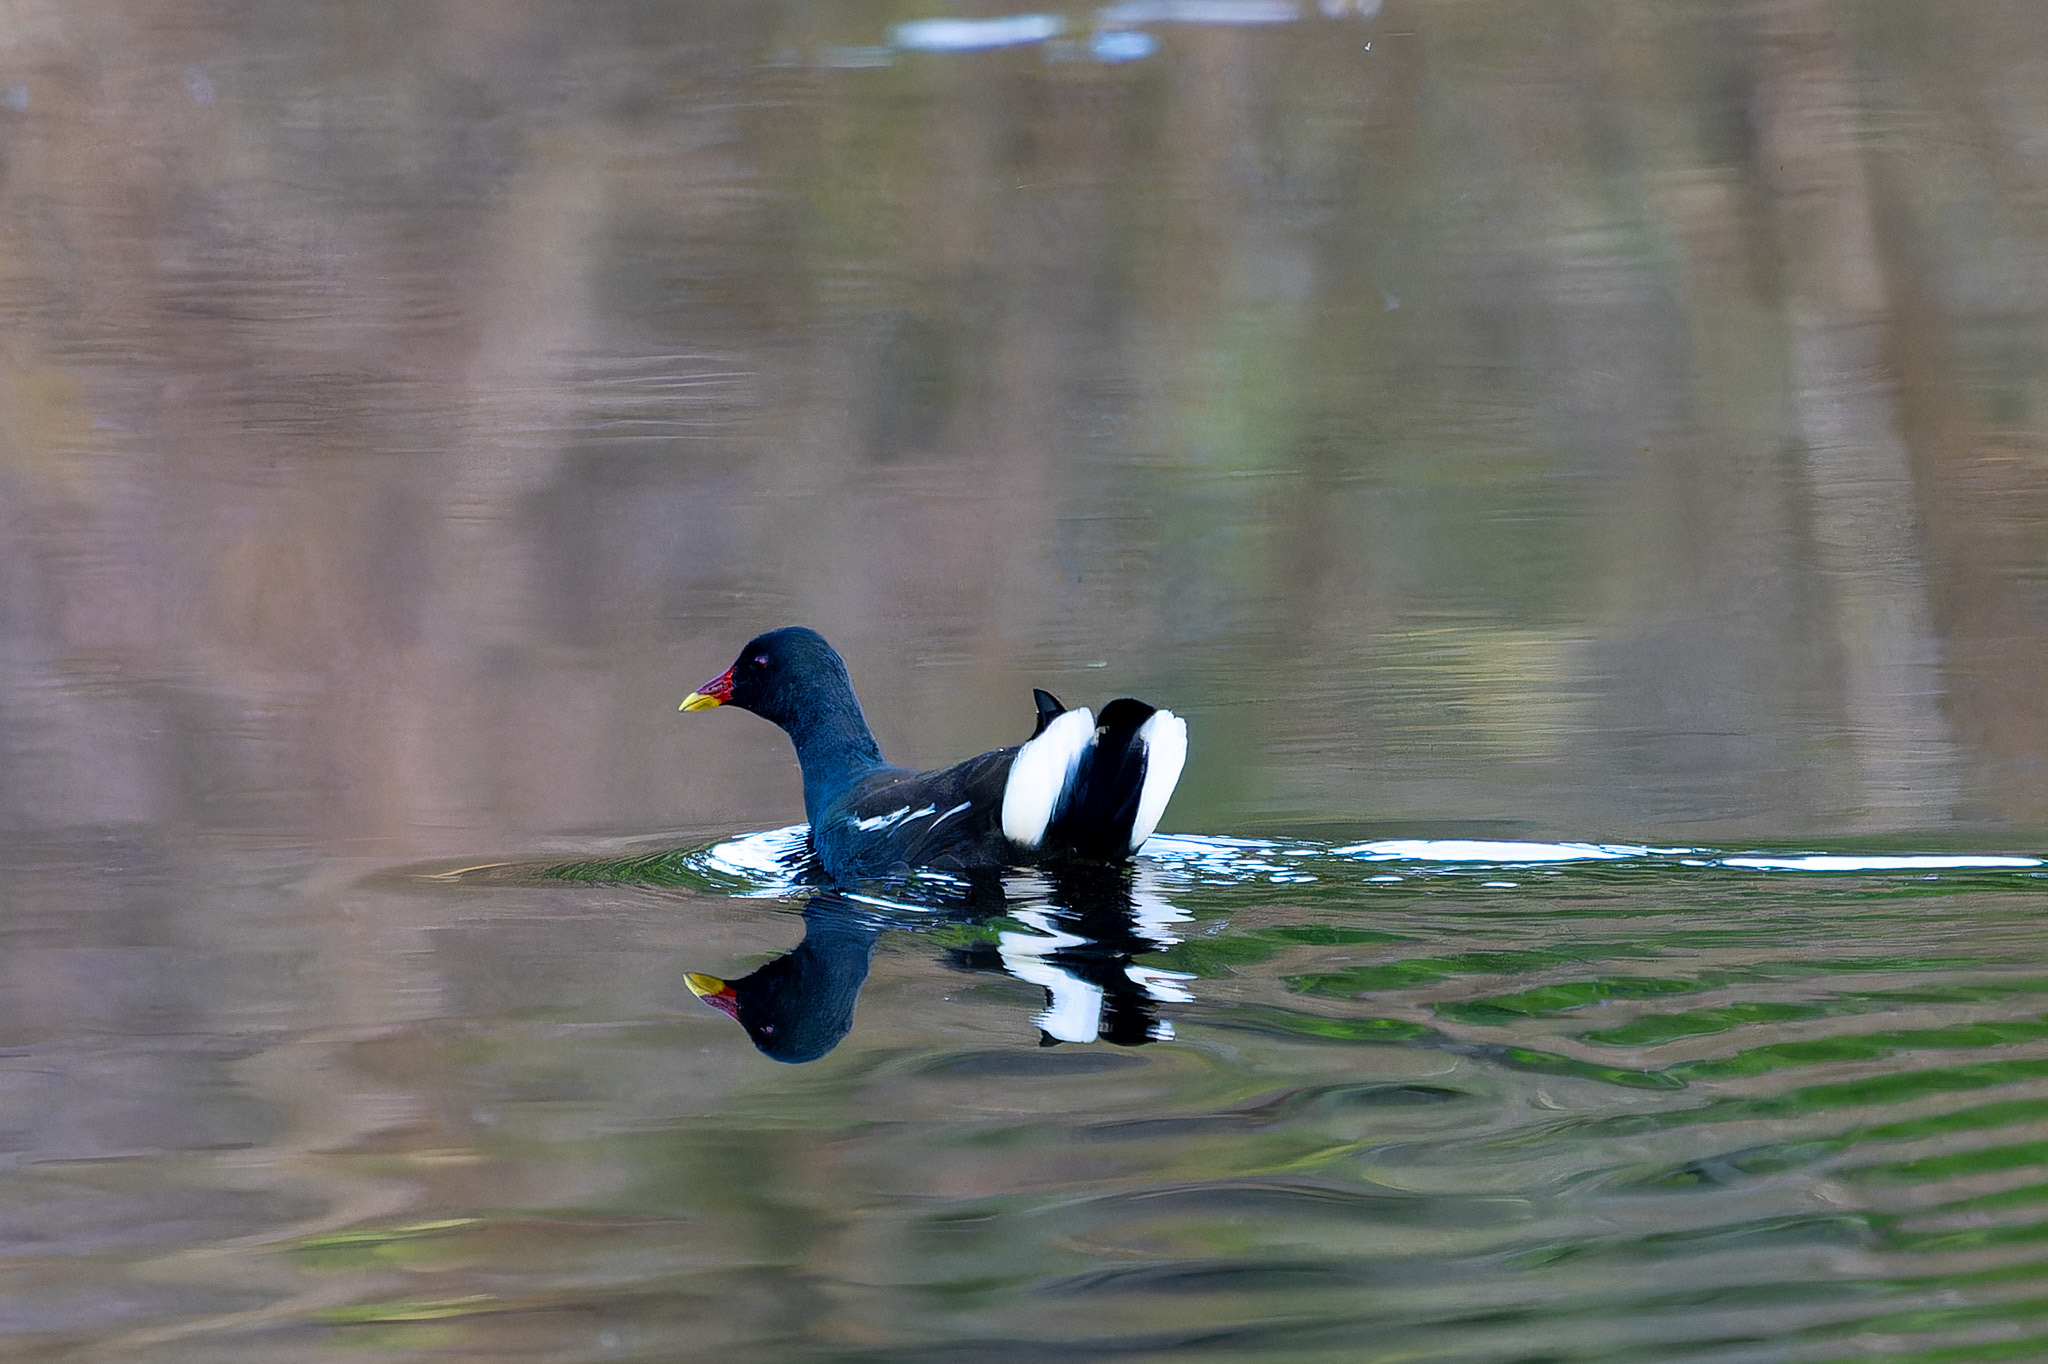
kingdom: Animalia
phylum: Chordata
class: Aves
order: Gruiformes
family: Rallidae
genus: Gallinula
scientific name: Gallinula chloropus
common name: Common moorhen
